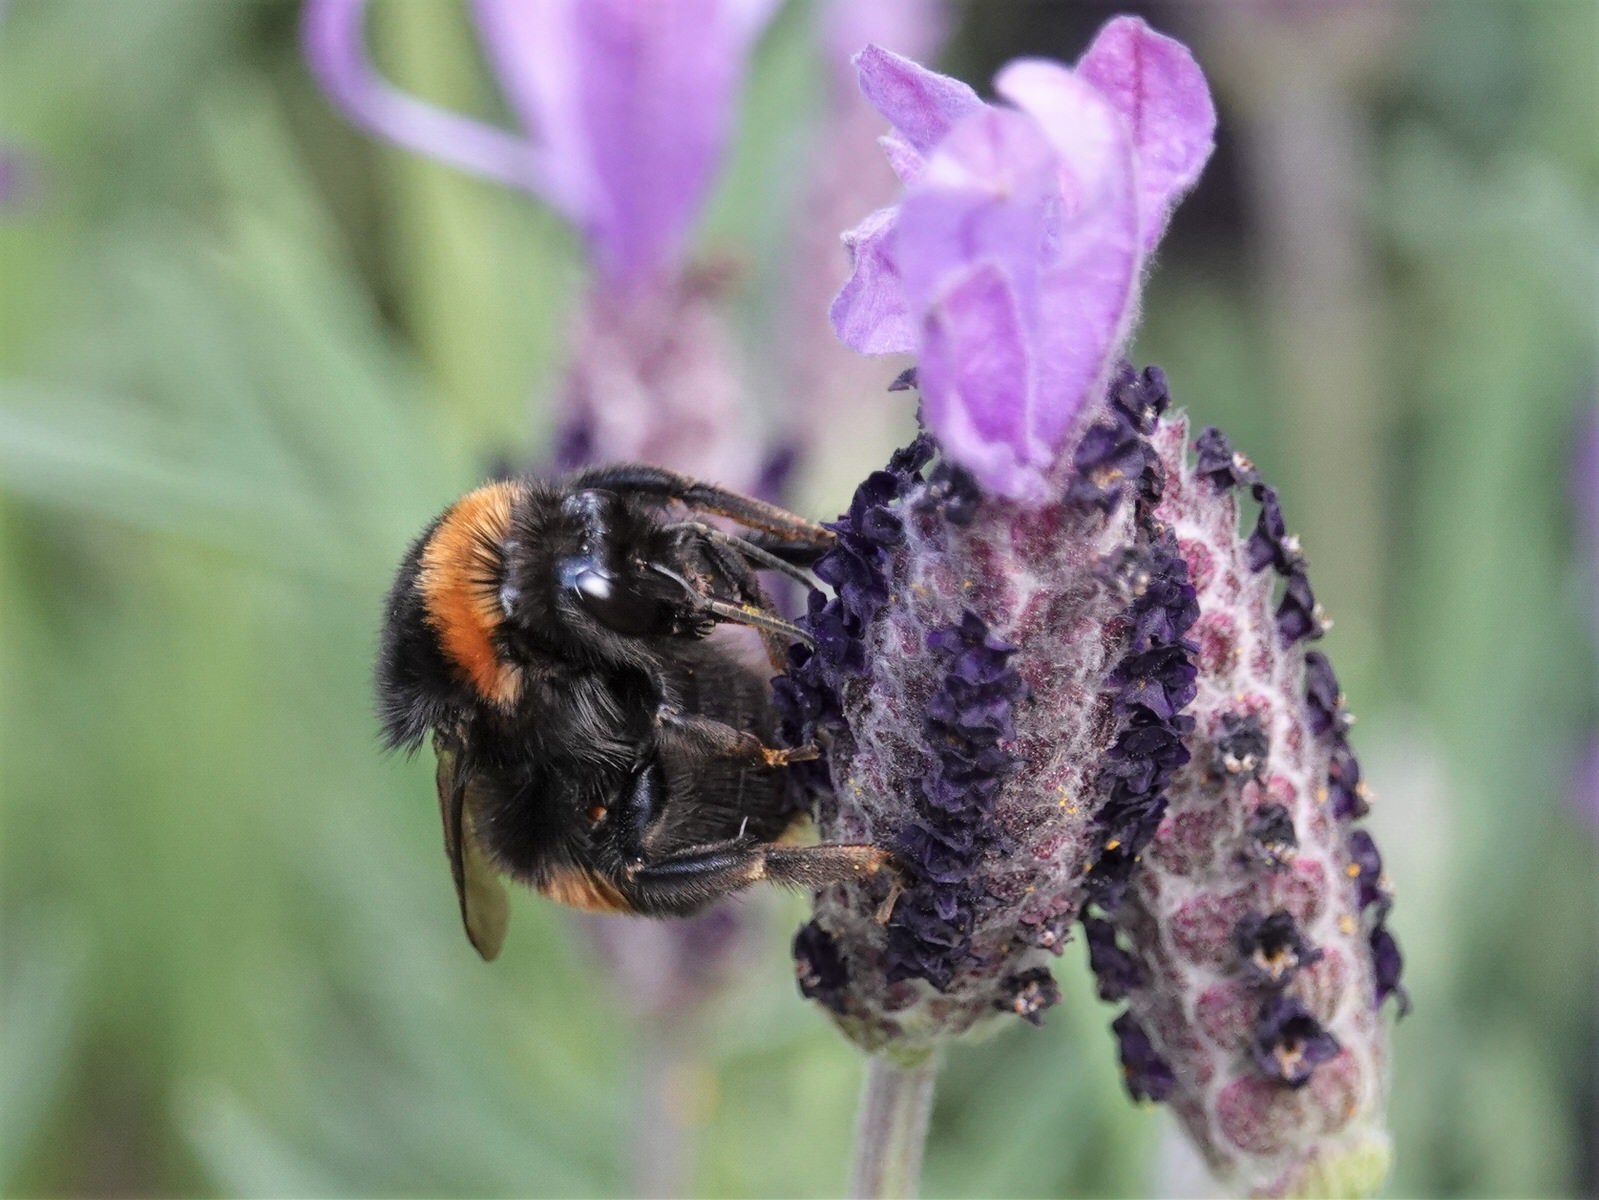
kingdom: Animalia
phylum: Arthropoda
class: Insecta
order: Hymenoptera
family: Apidae
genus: Bombus
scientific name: Bombus terrestris
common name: Buff-tailed bumblebee
